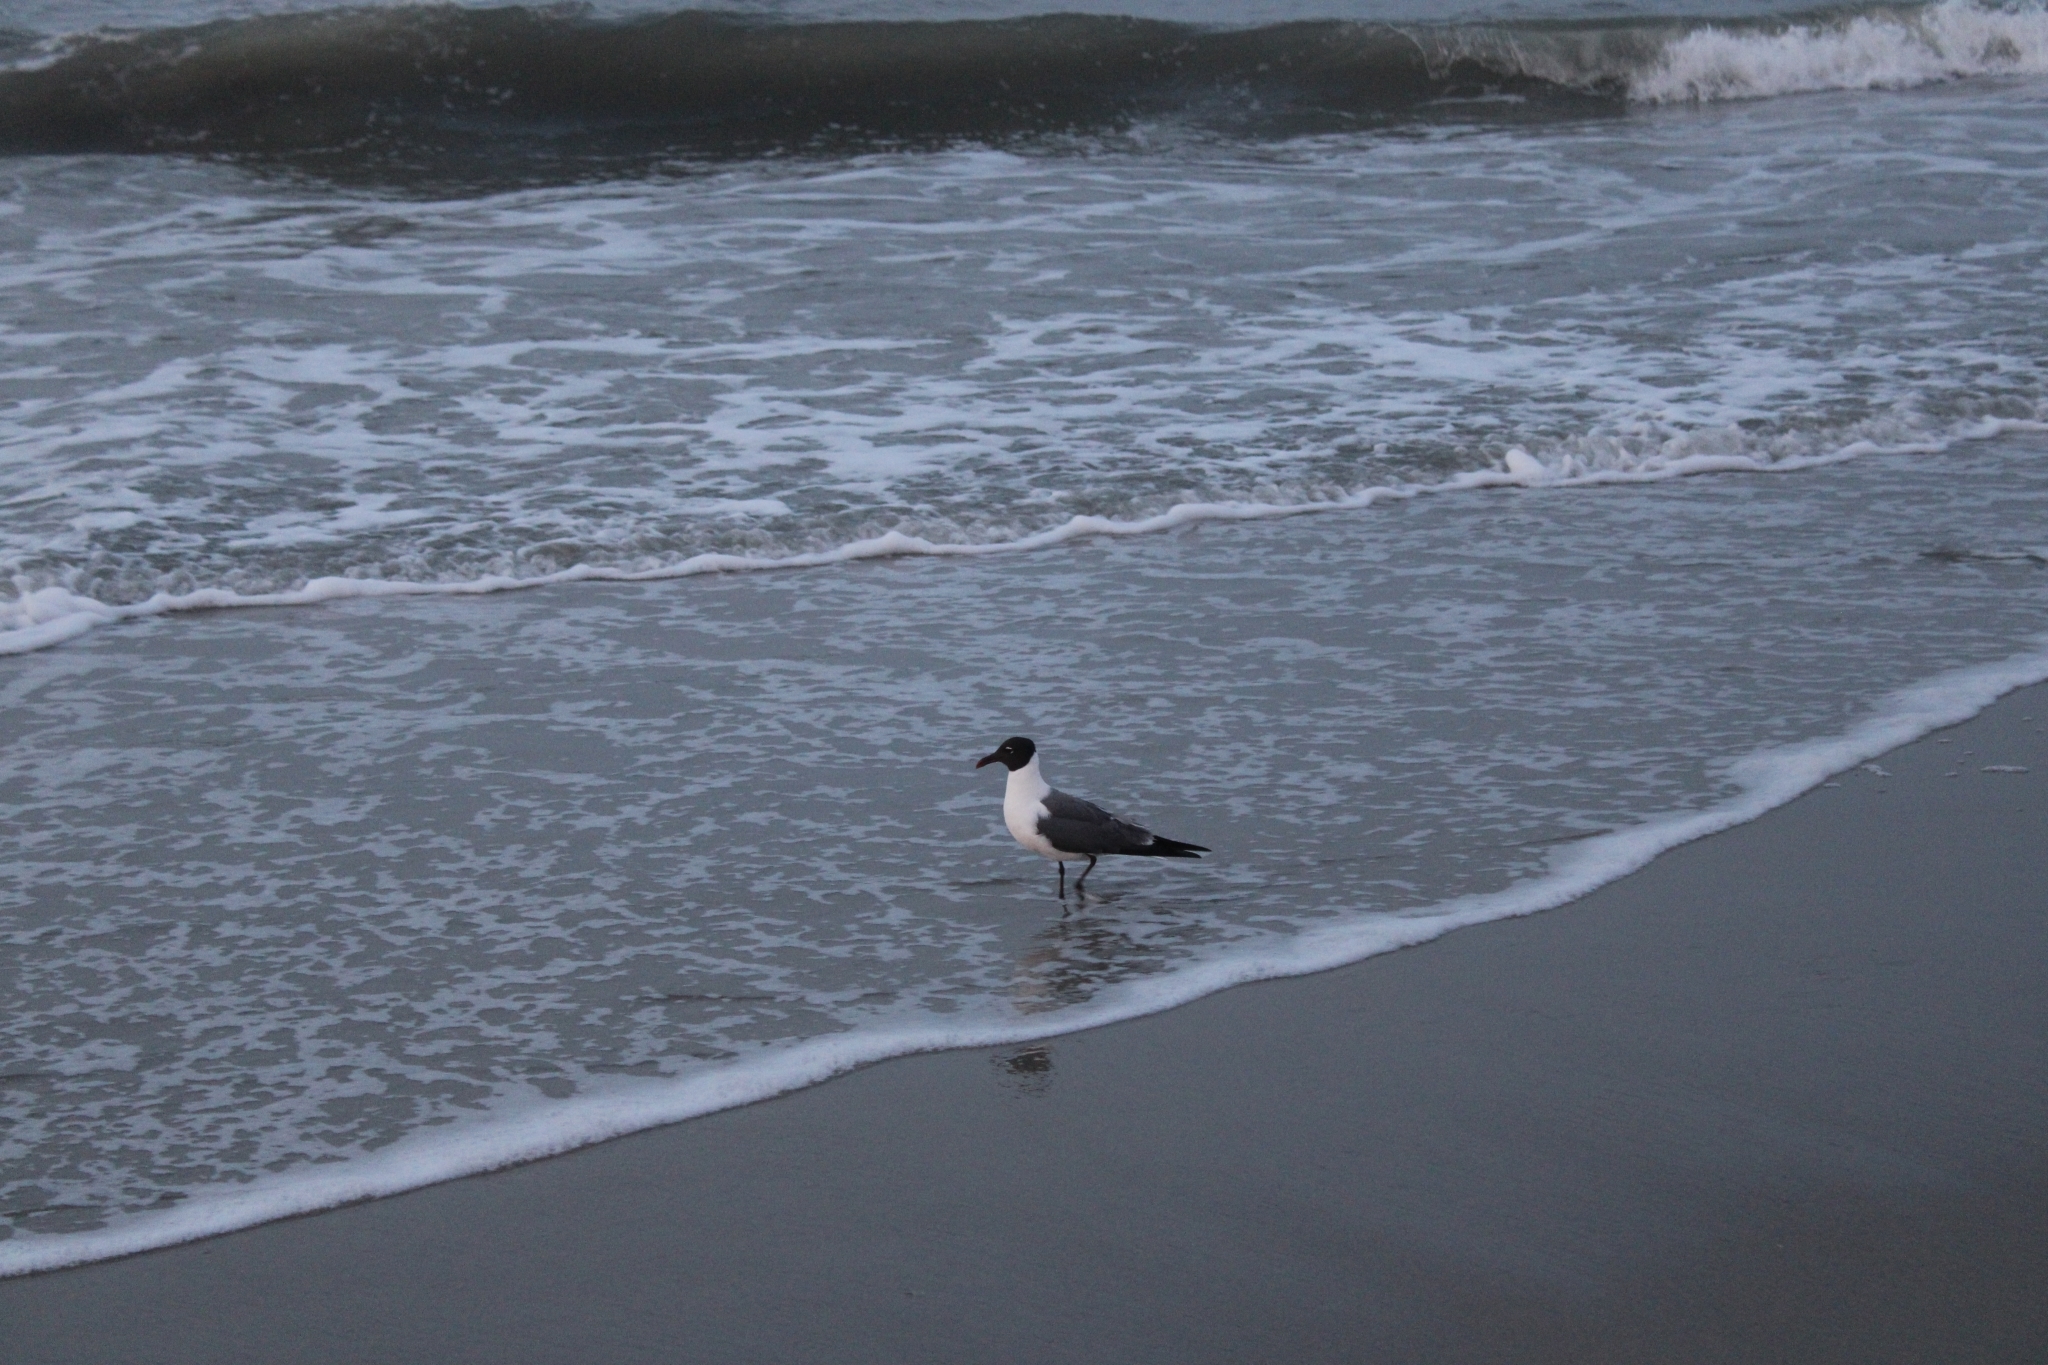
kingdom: Animalia
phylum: Chordata
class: Aves
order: Charadriiformes
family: Laridae
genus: Leucophaeus
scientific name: Leucophaeus atricilla
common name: Laughing gull
